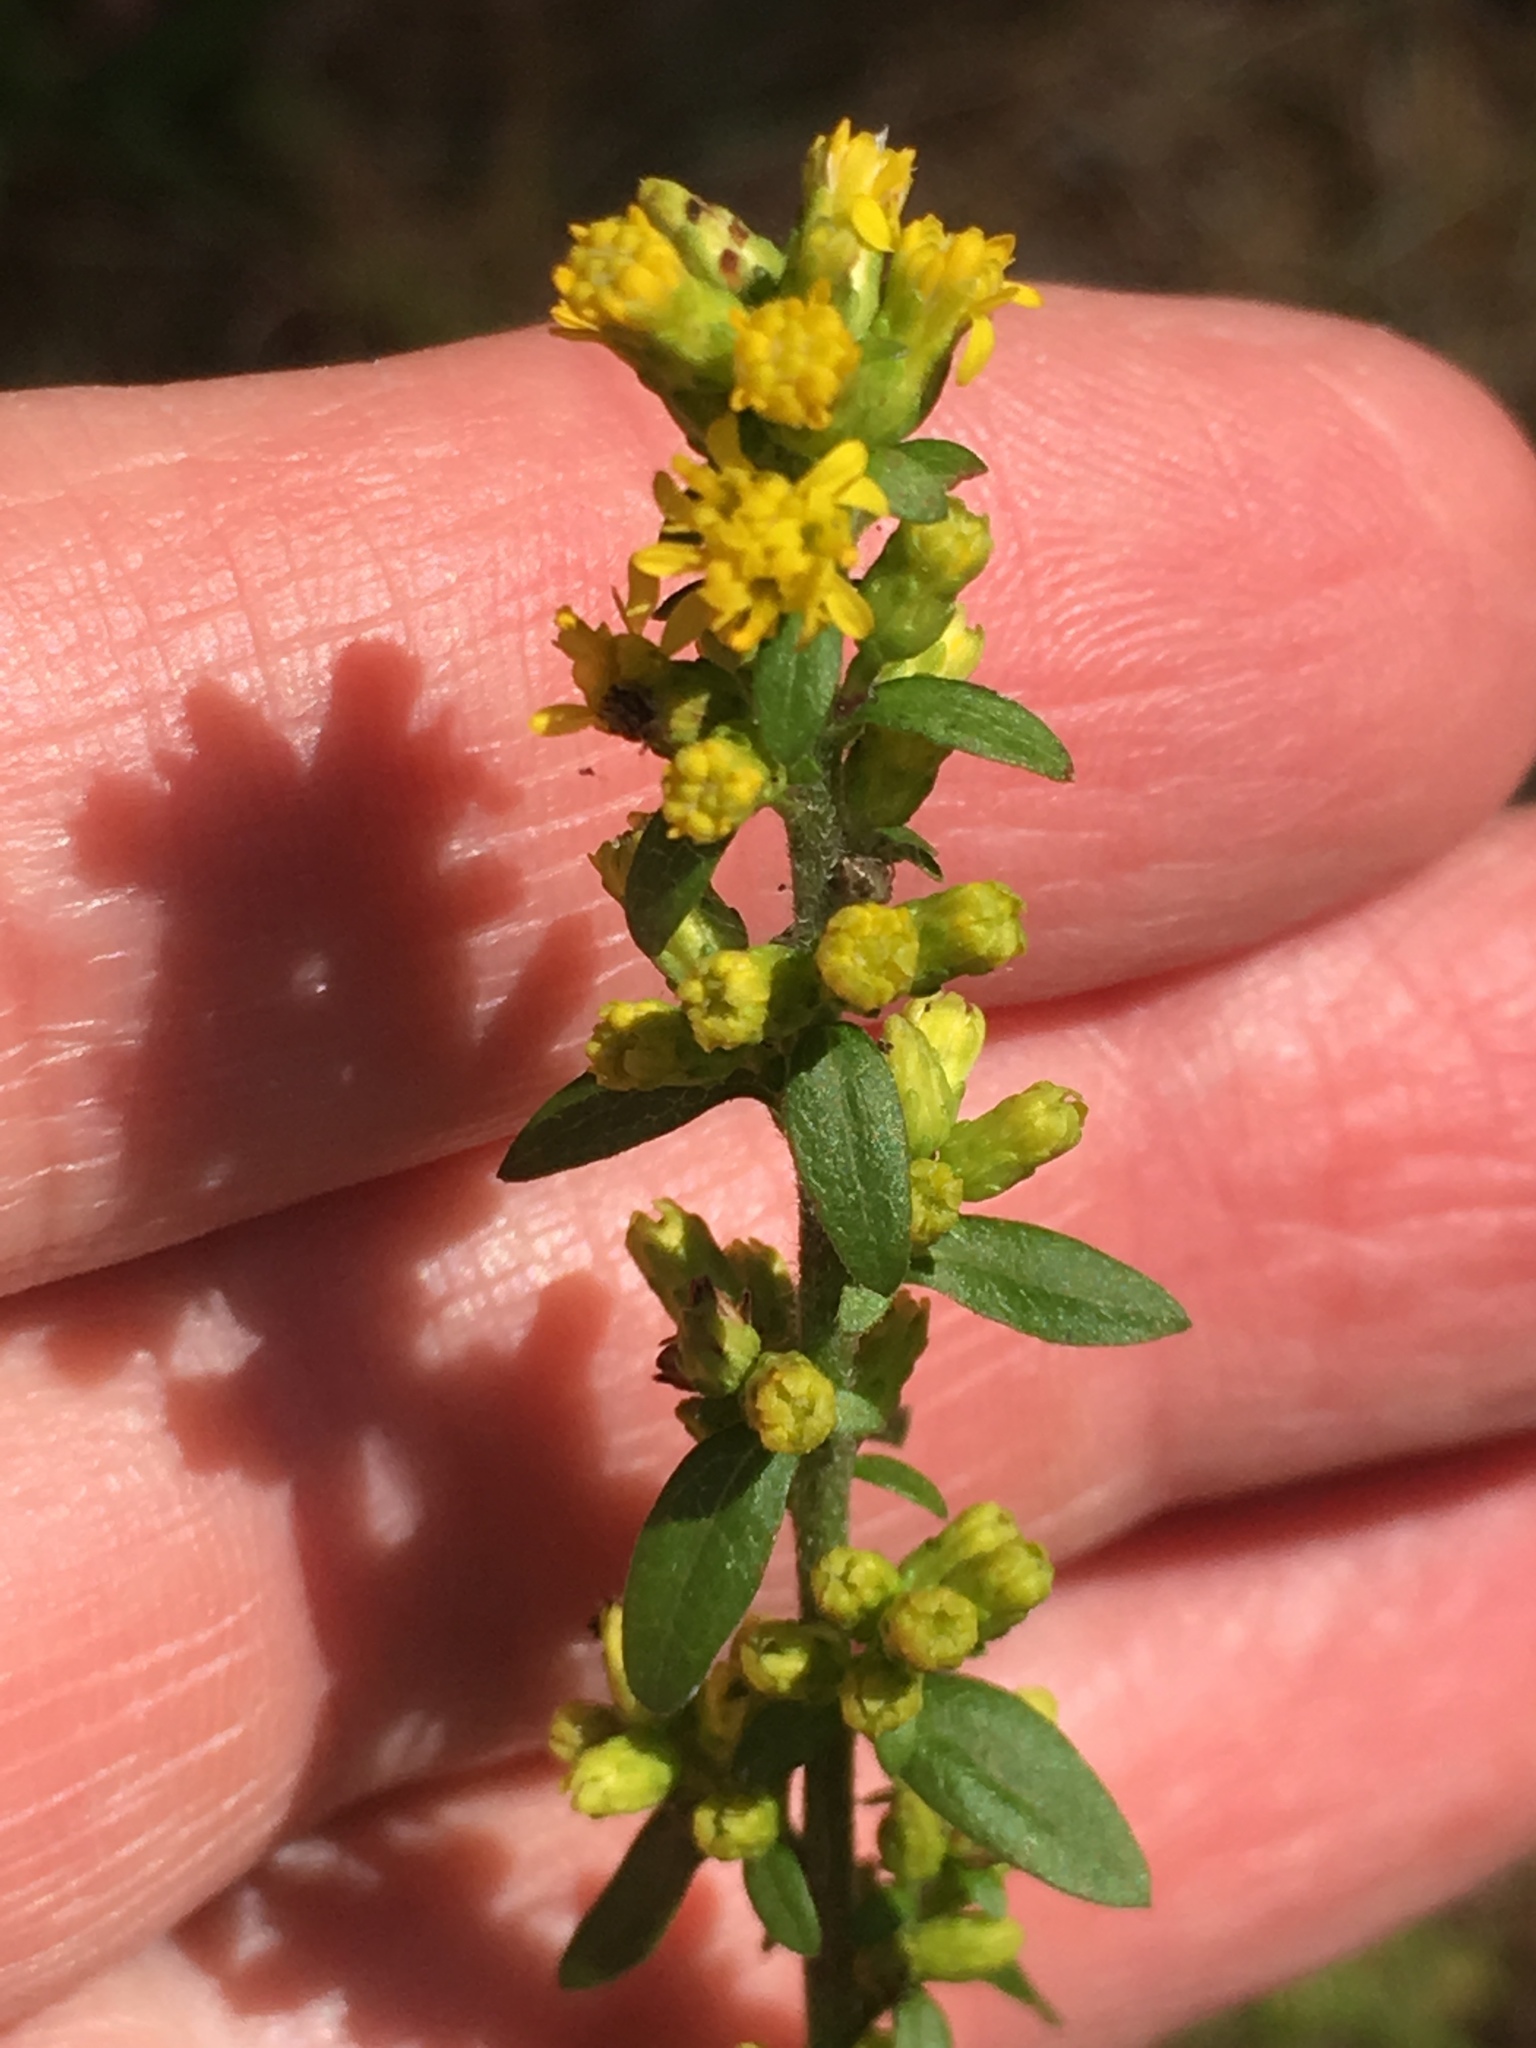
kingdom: Plantae
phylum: Tracheophyta
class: Magnoliopsida
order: Asterales
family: Asteraceae
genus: Solidago
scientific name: Solidago hispida
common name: Hairy goldenrod
